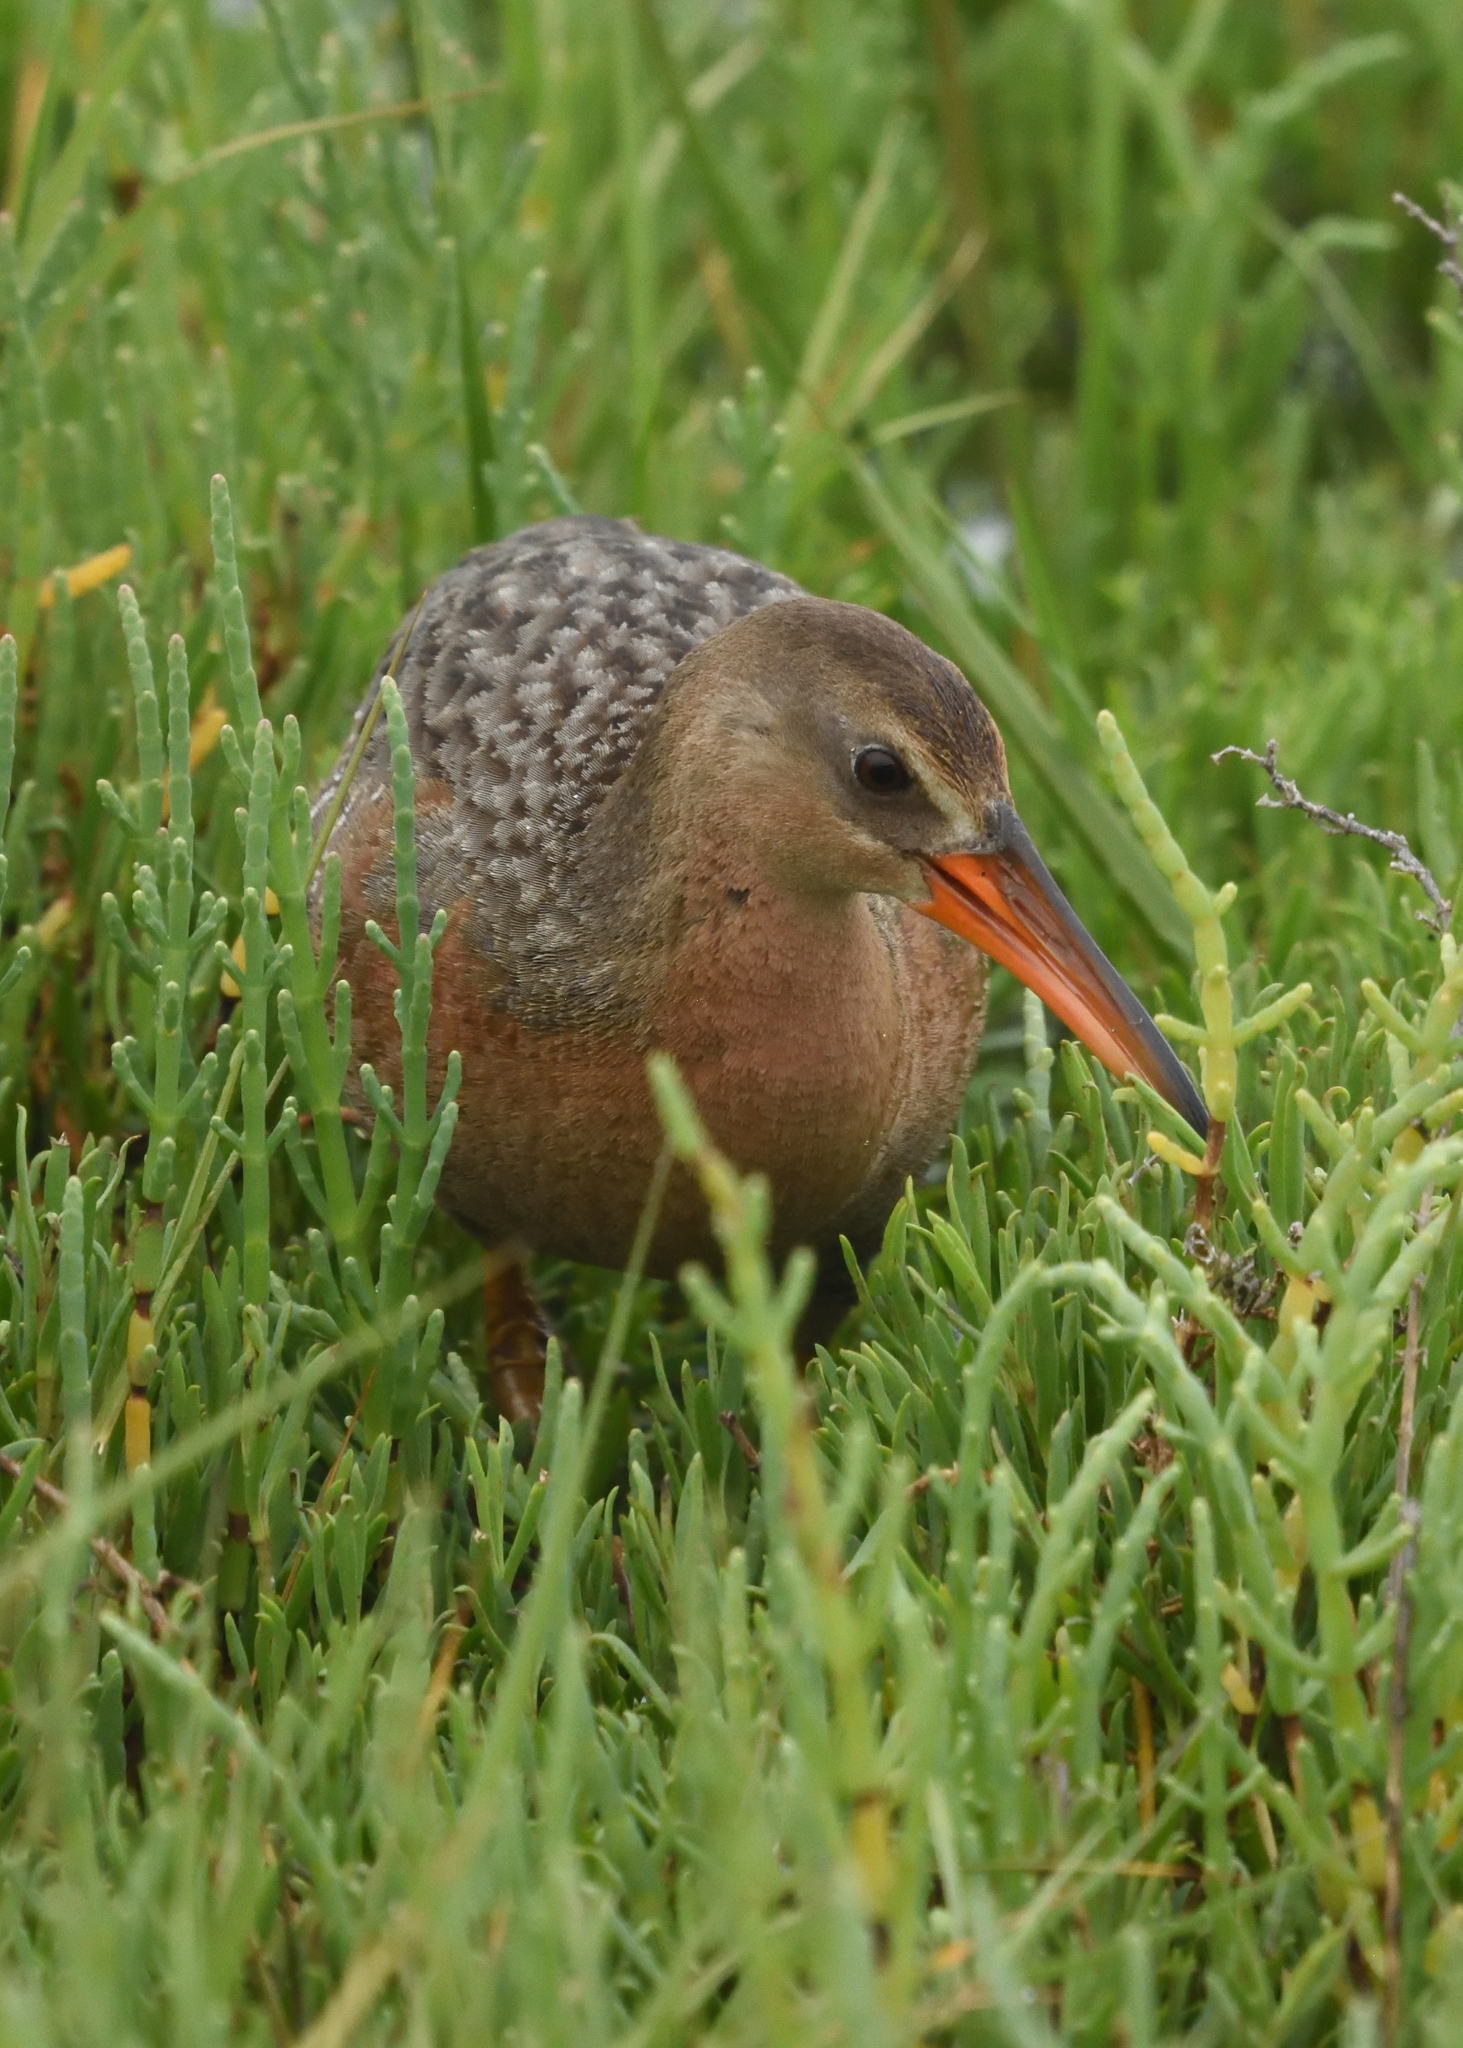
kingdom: Animalia
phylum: Chordata
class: Aves
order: Gruiformes
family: Rallidae
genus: Rallus
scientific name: Rallus obsoletus
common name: Ridgway's rail
